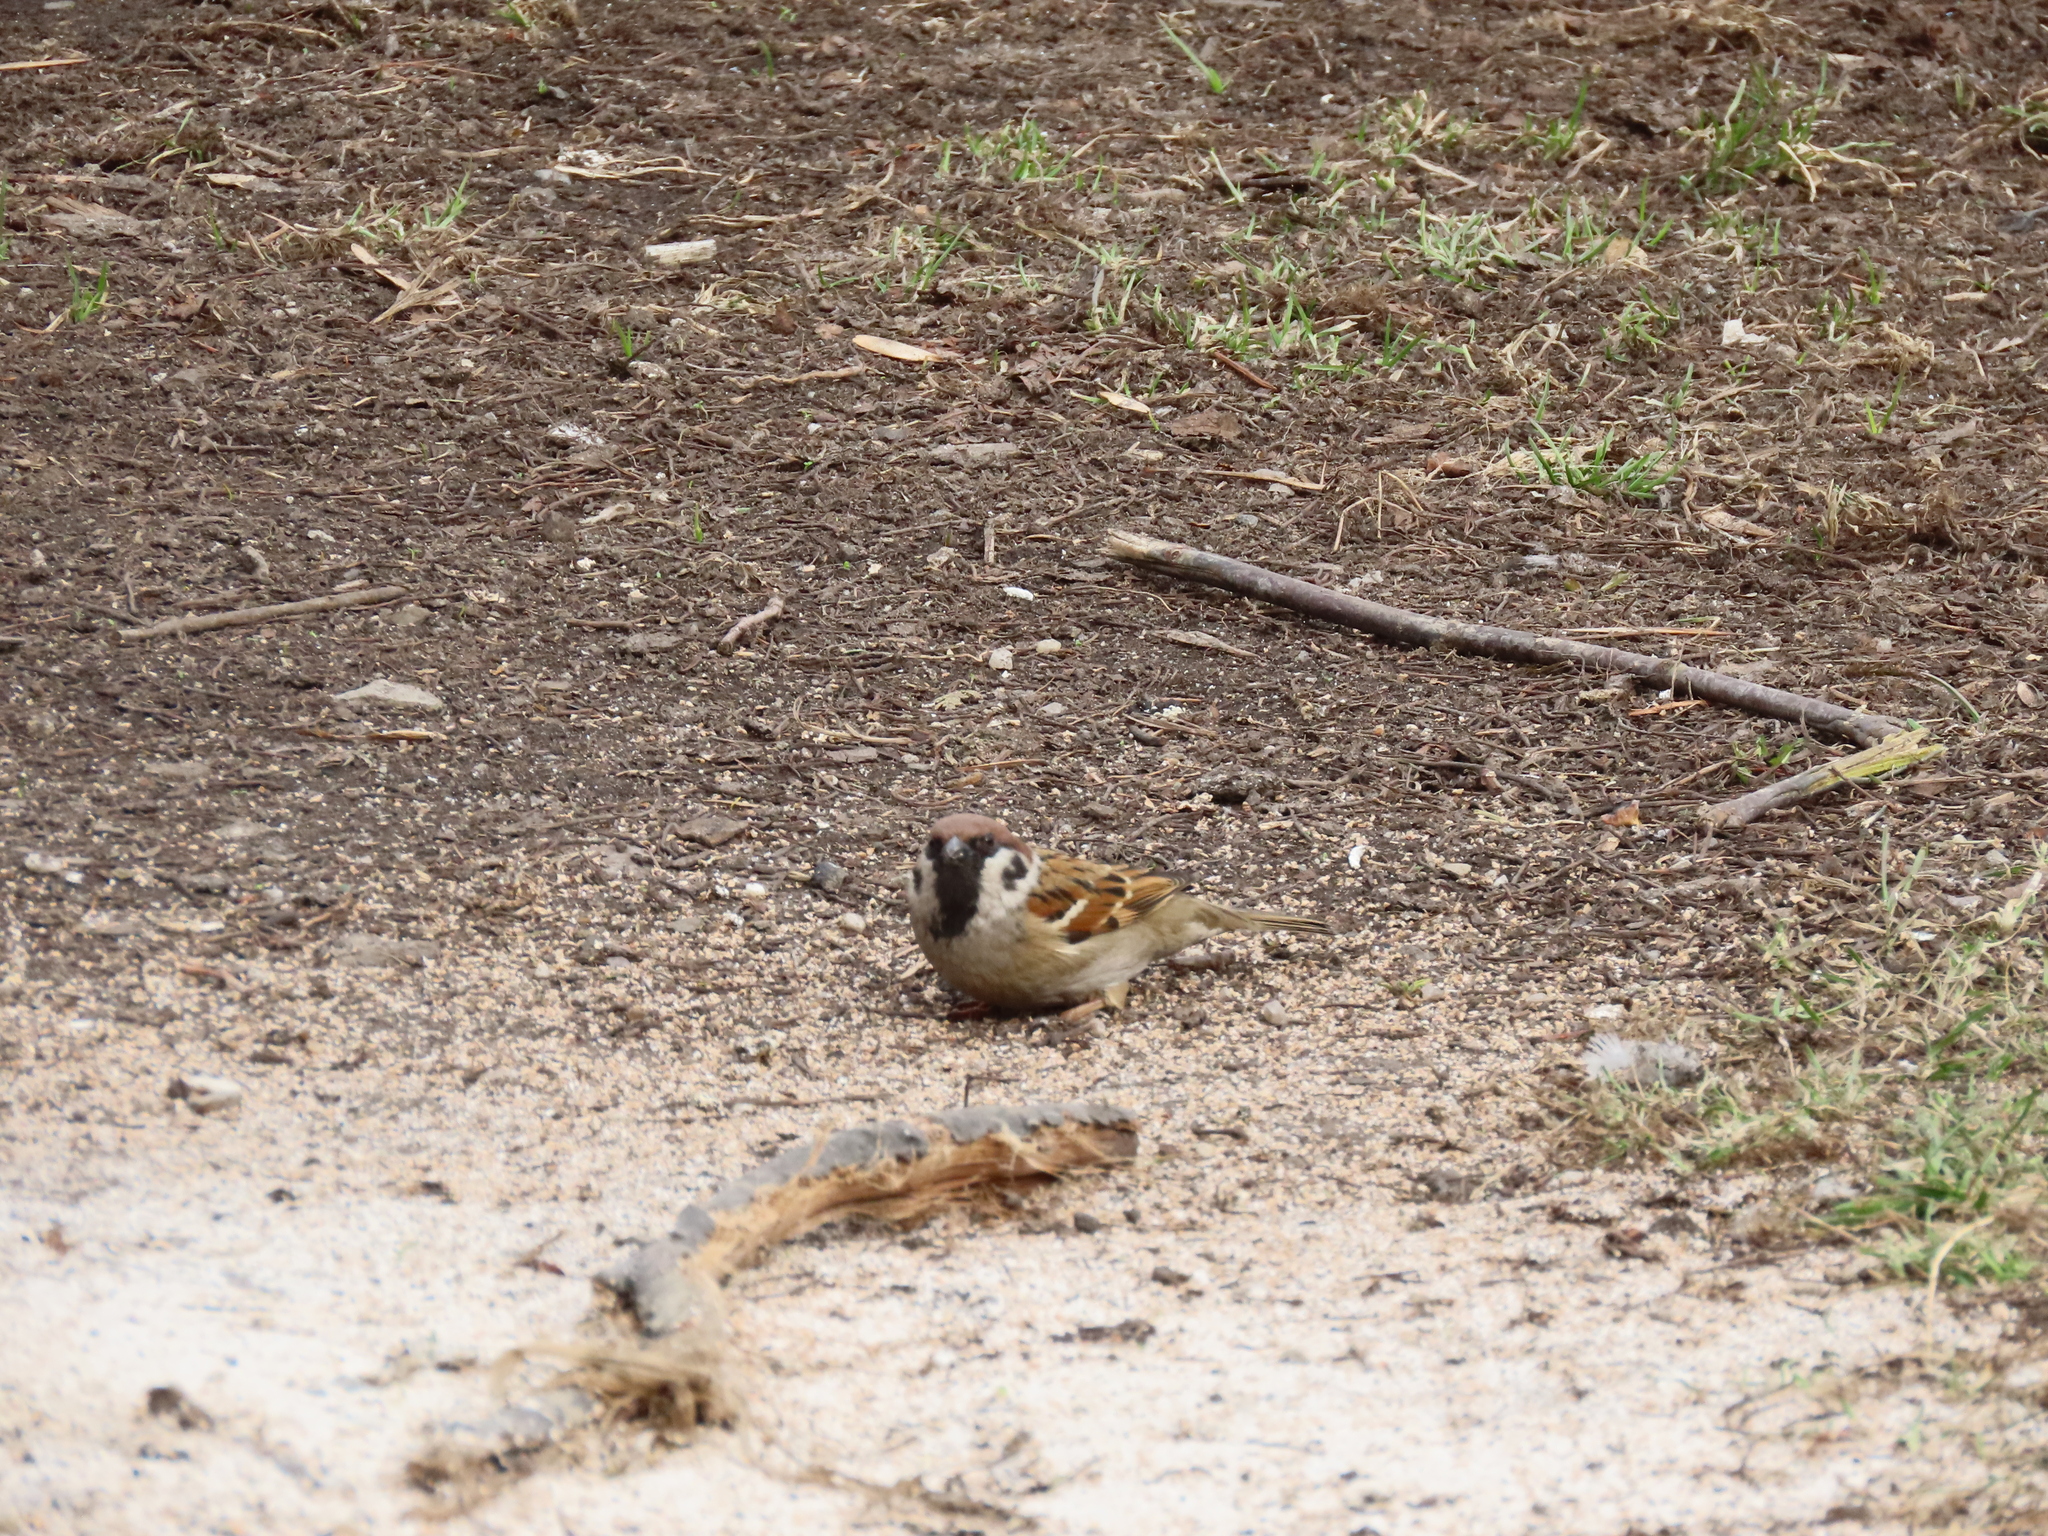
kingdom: Animalia
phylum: Chordata
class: Aves
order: Passeriformes
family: Passeridae
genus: Passer
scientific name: Passer montanus
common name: Eurasian tree sparrow
